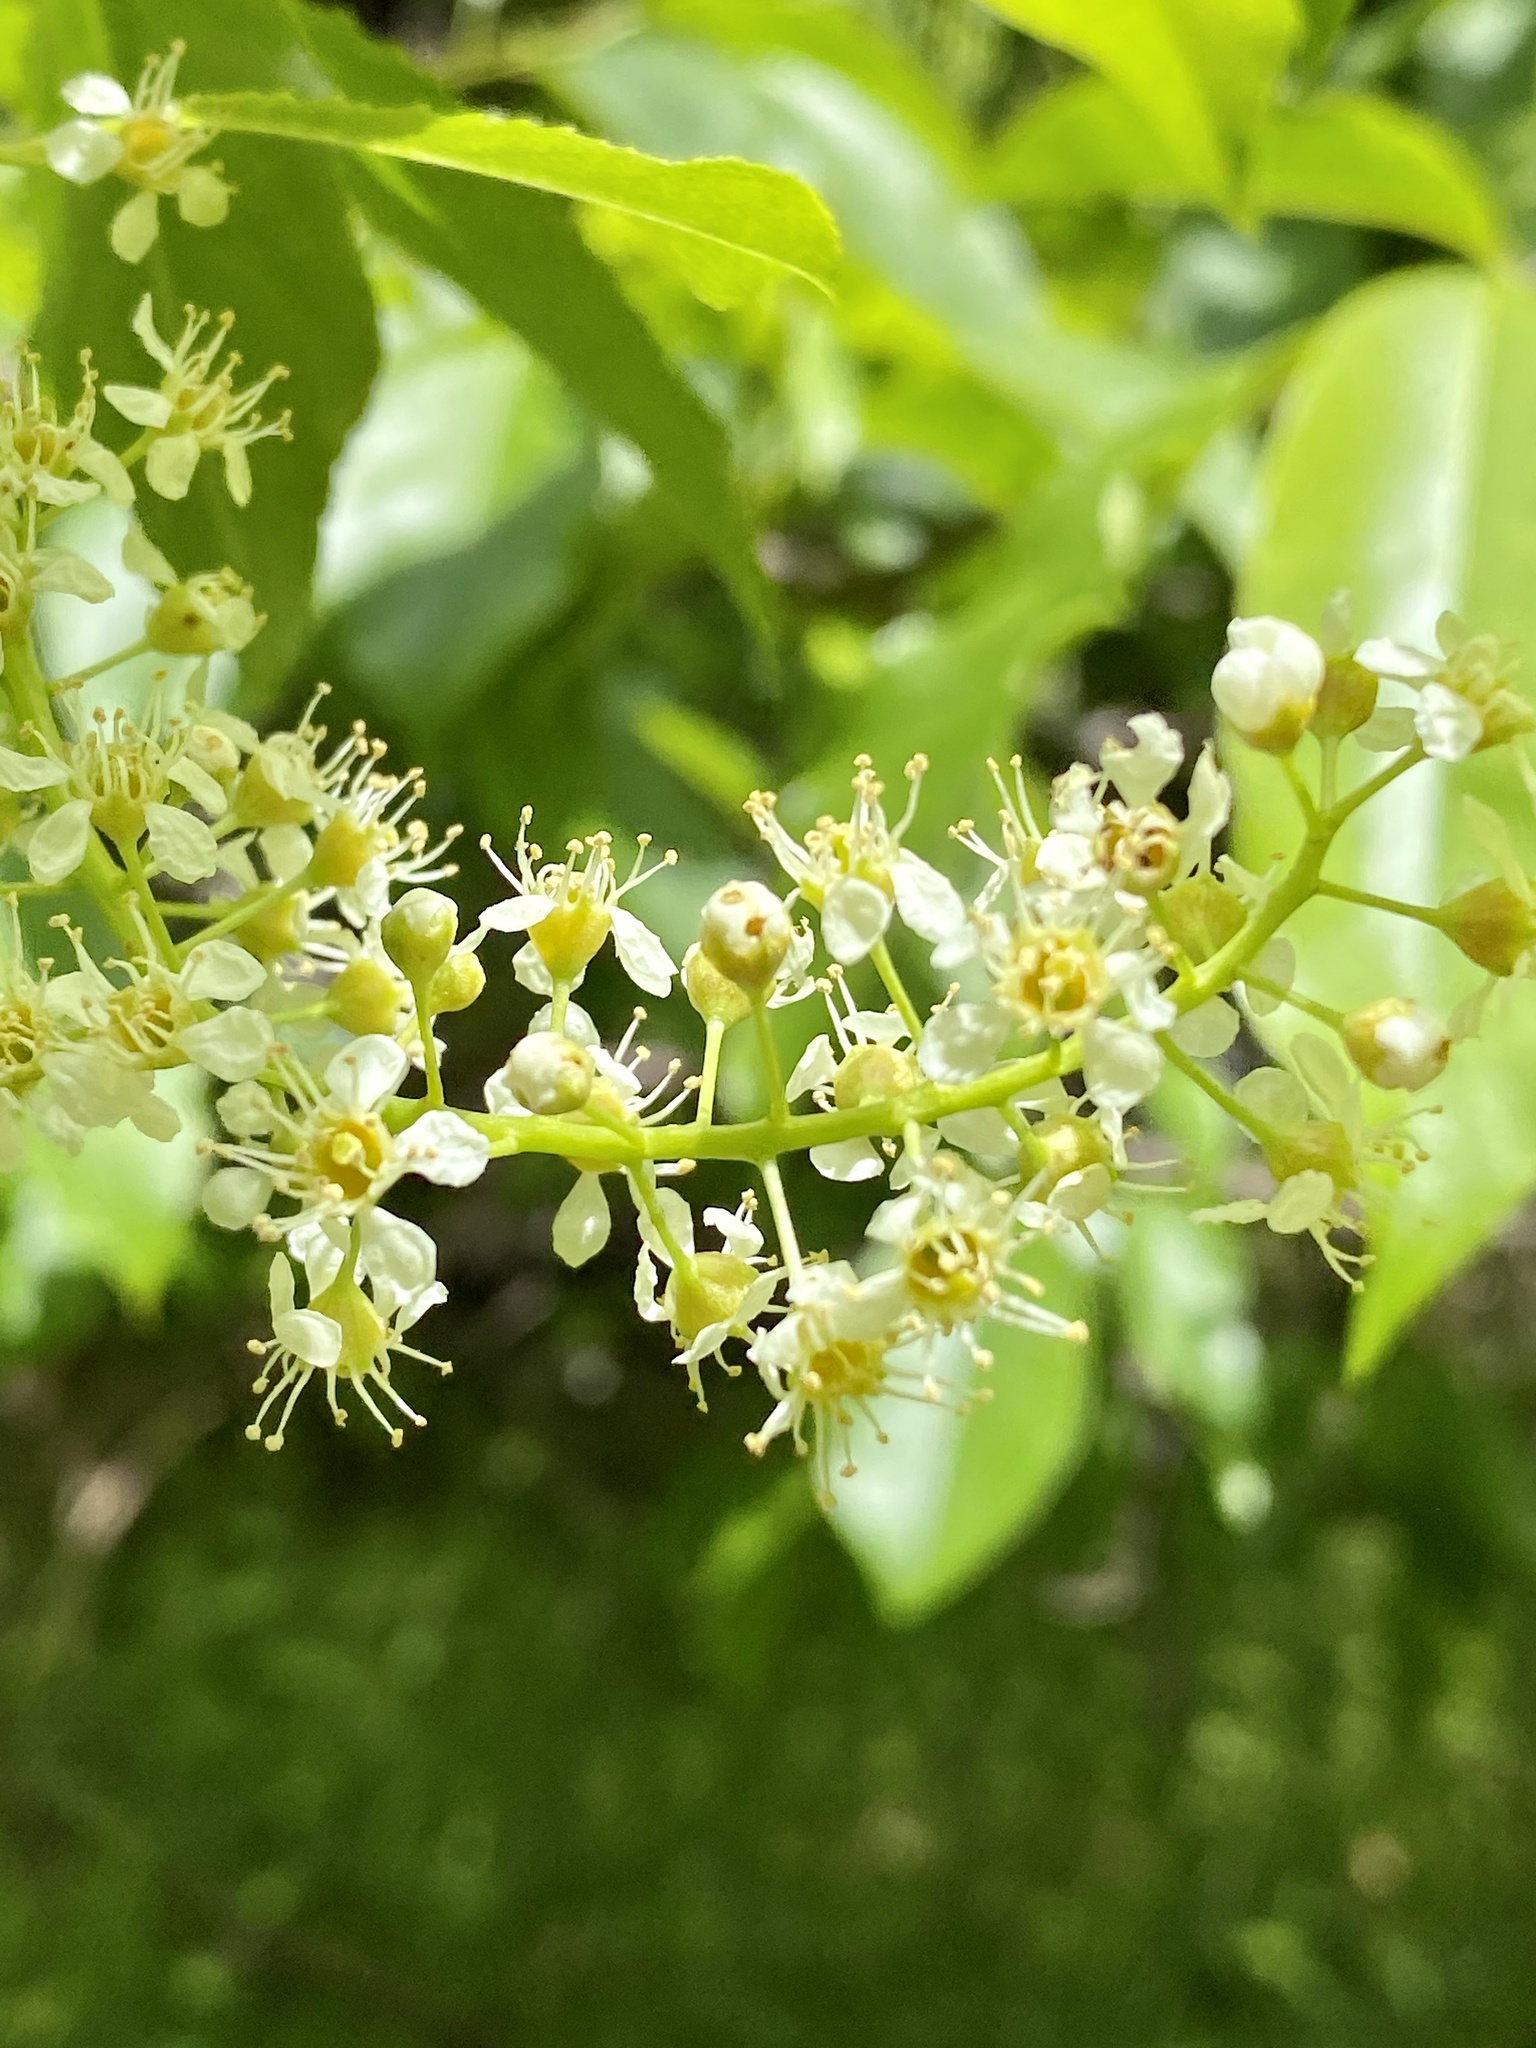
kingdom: Plantae
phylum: Tracheophyta
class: Magnoliopsida
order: Rosales
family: Rosaceae
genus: Prunus
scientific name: Prunus serotina
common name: Black cherry
